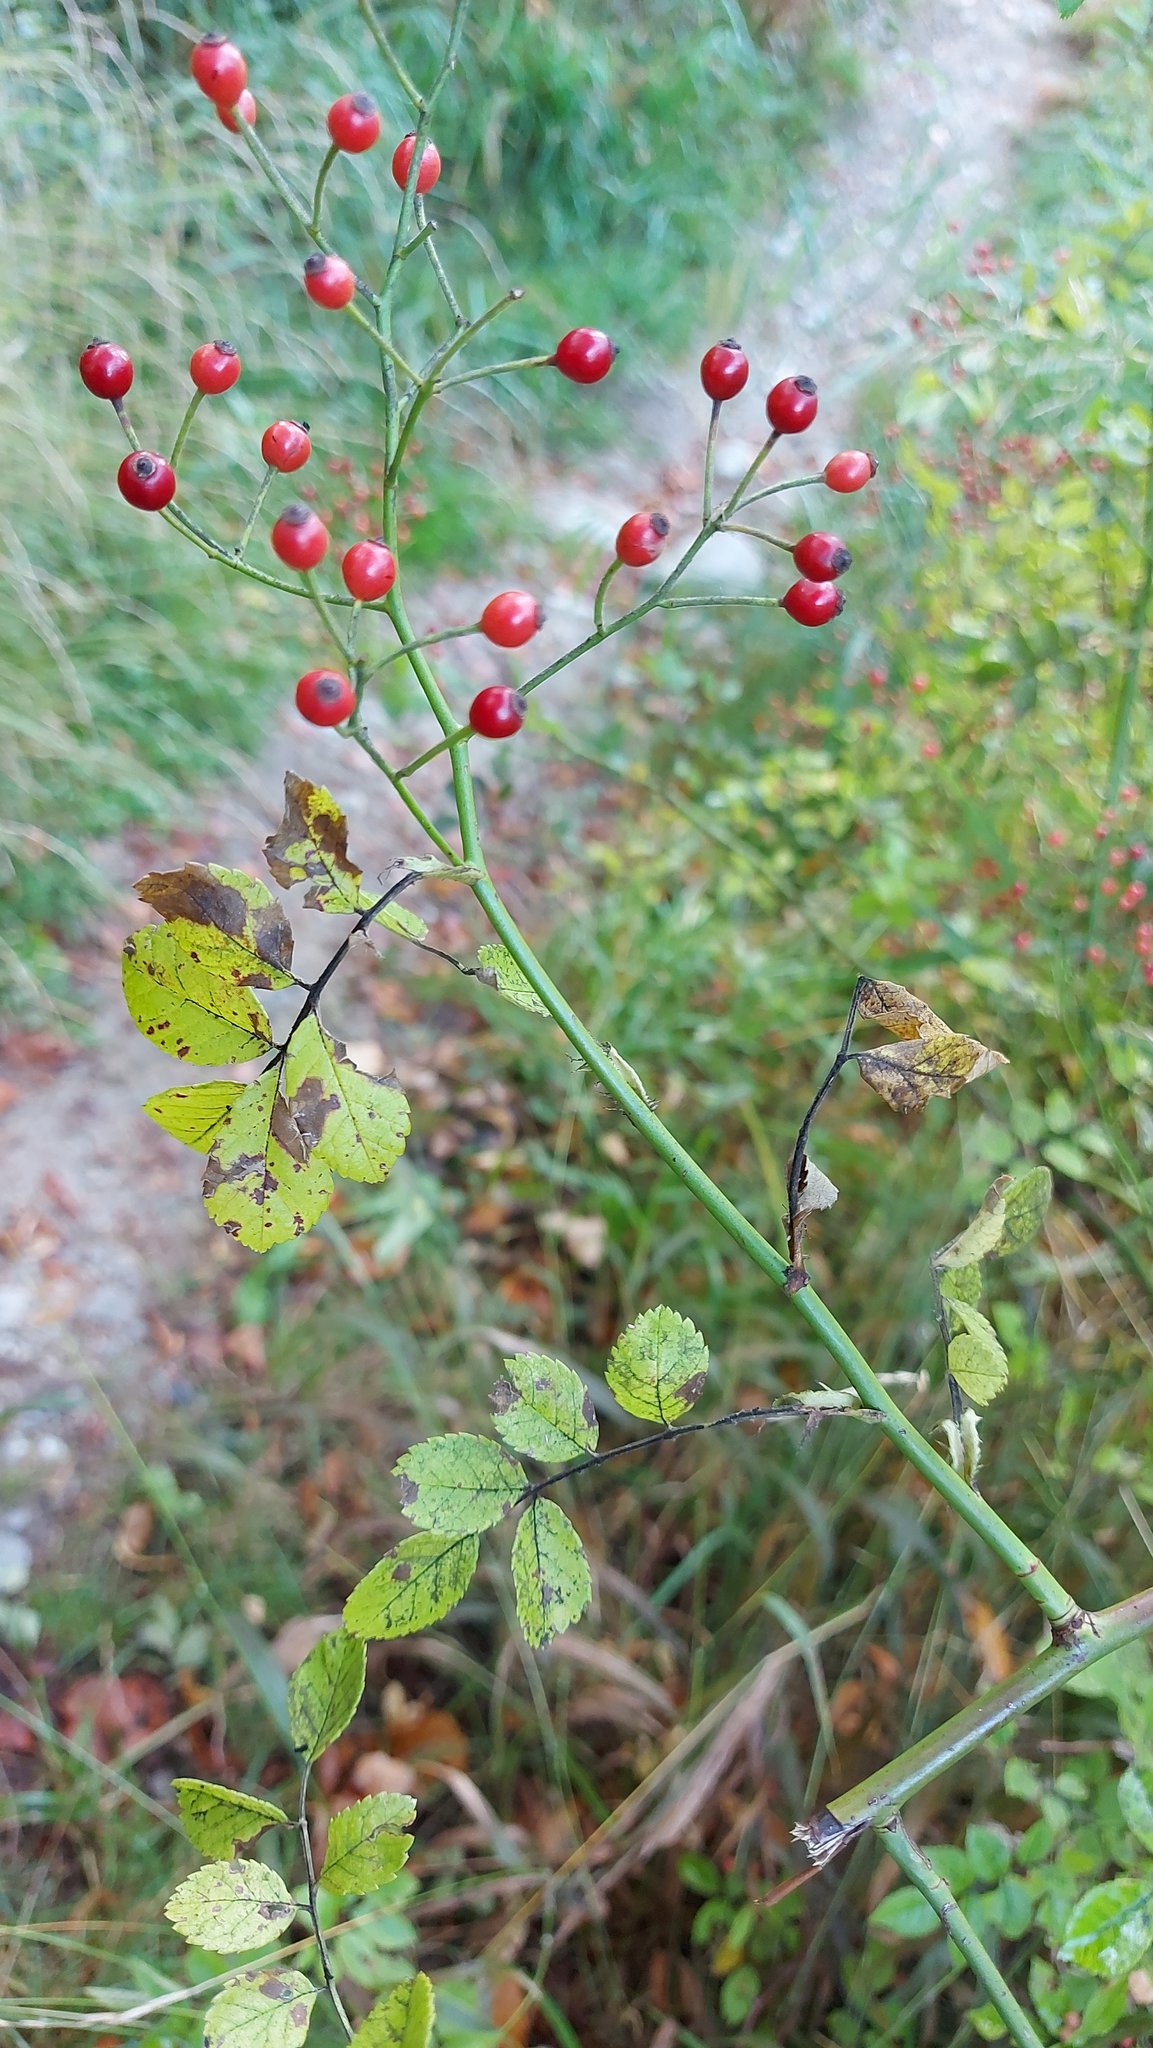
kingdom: Plantae
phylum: Tracheophyta
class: Magnoliopsida
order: Rosales
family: Rosaceae
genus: Rosa
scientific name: Rosa multiflora
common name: Multiflora rose
